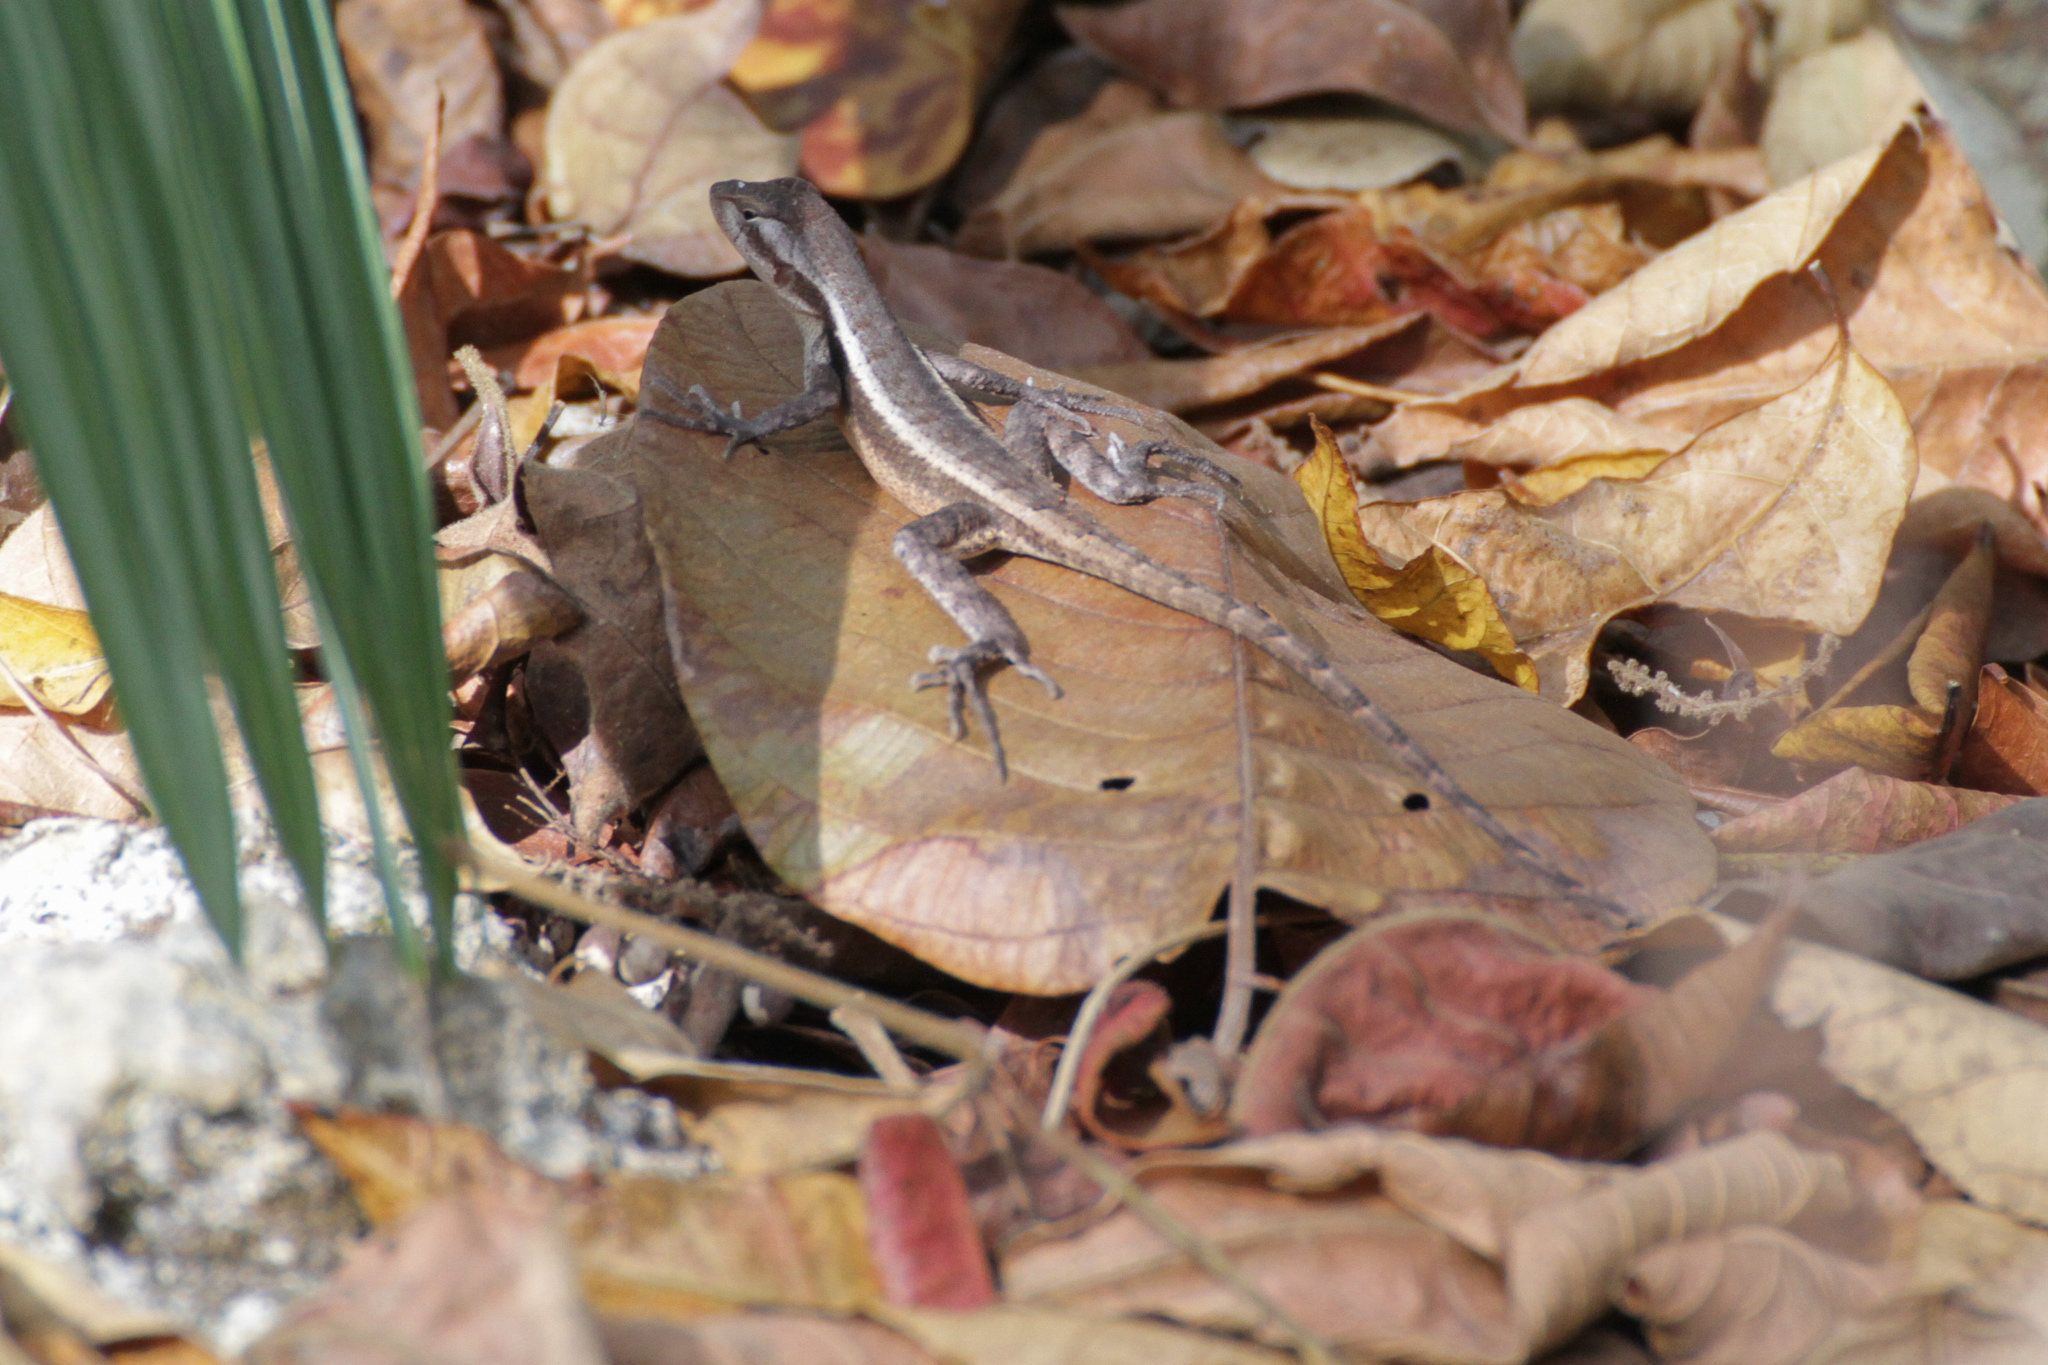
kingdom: Animalia
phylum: Chordata
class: Squamata
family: Phrynosomatidae
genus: Sceloporus
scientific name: Sceloporus chrysostictus
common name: Yellow-spotted spiny lizard
